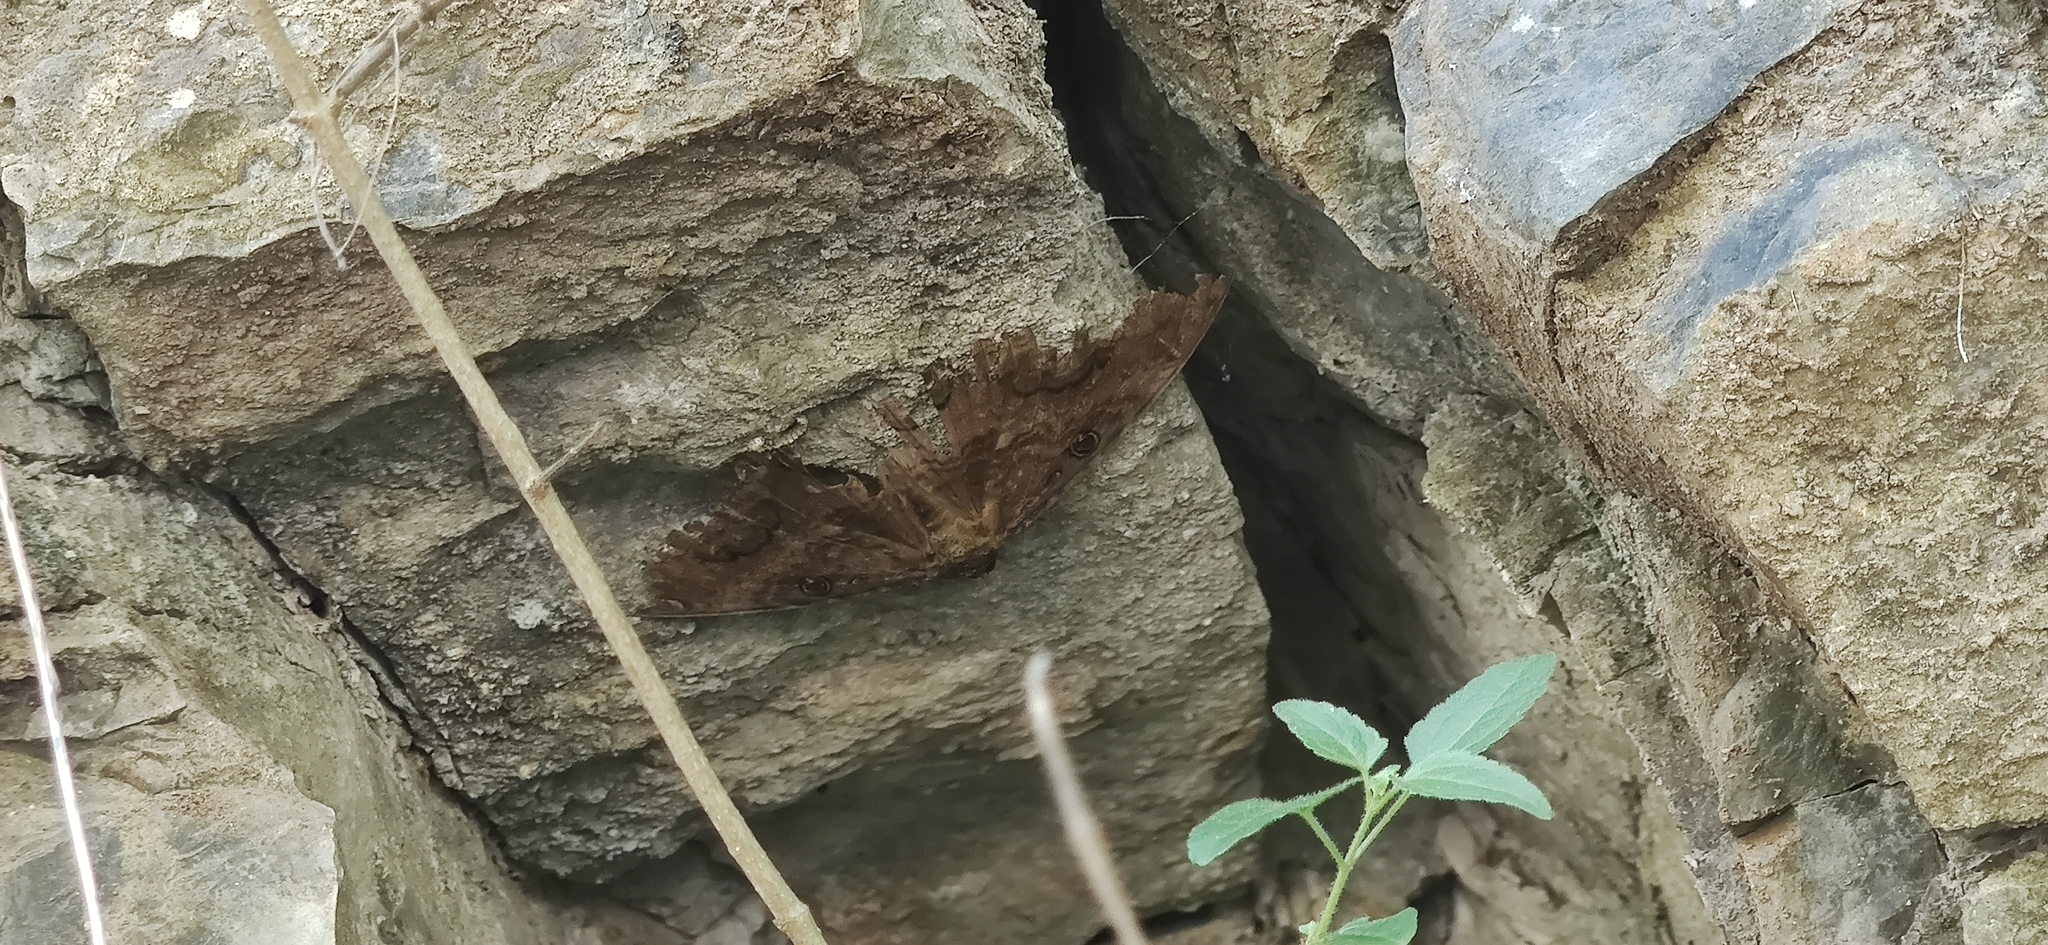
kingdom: Animalia
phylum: Arthropoda
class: Insecta
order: Lepidoptera
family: Erebidae
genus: Ascalapha
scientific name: Ascalapha odorata
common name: Black witch
